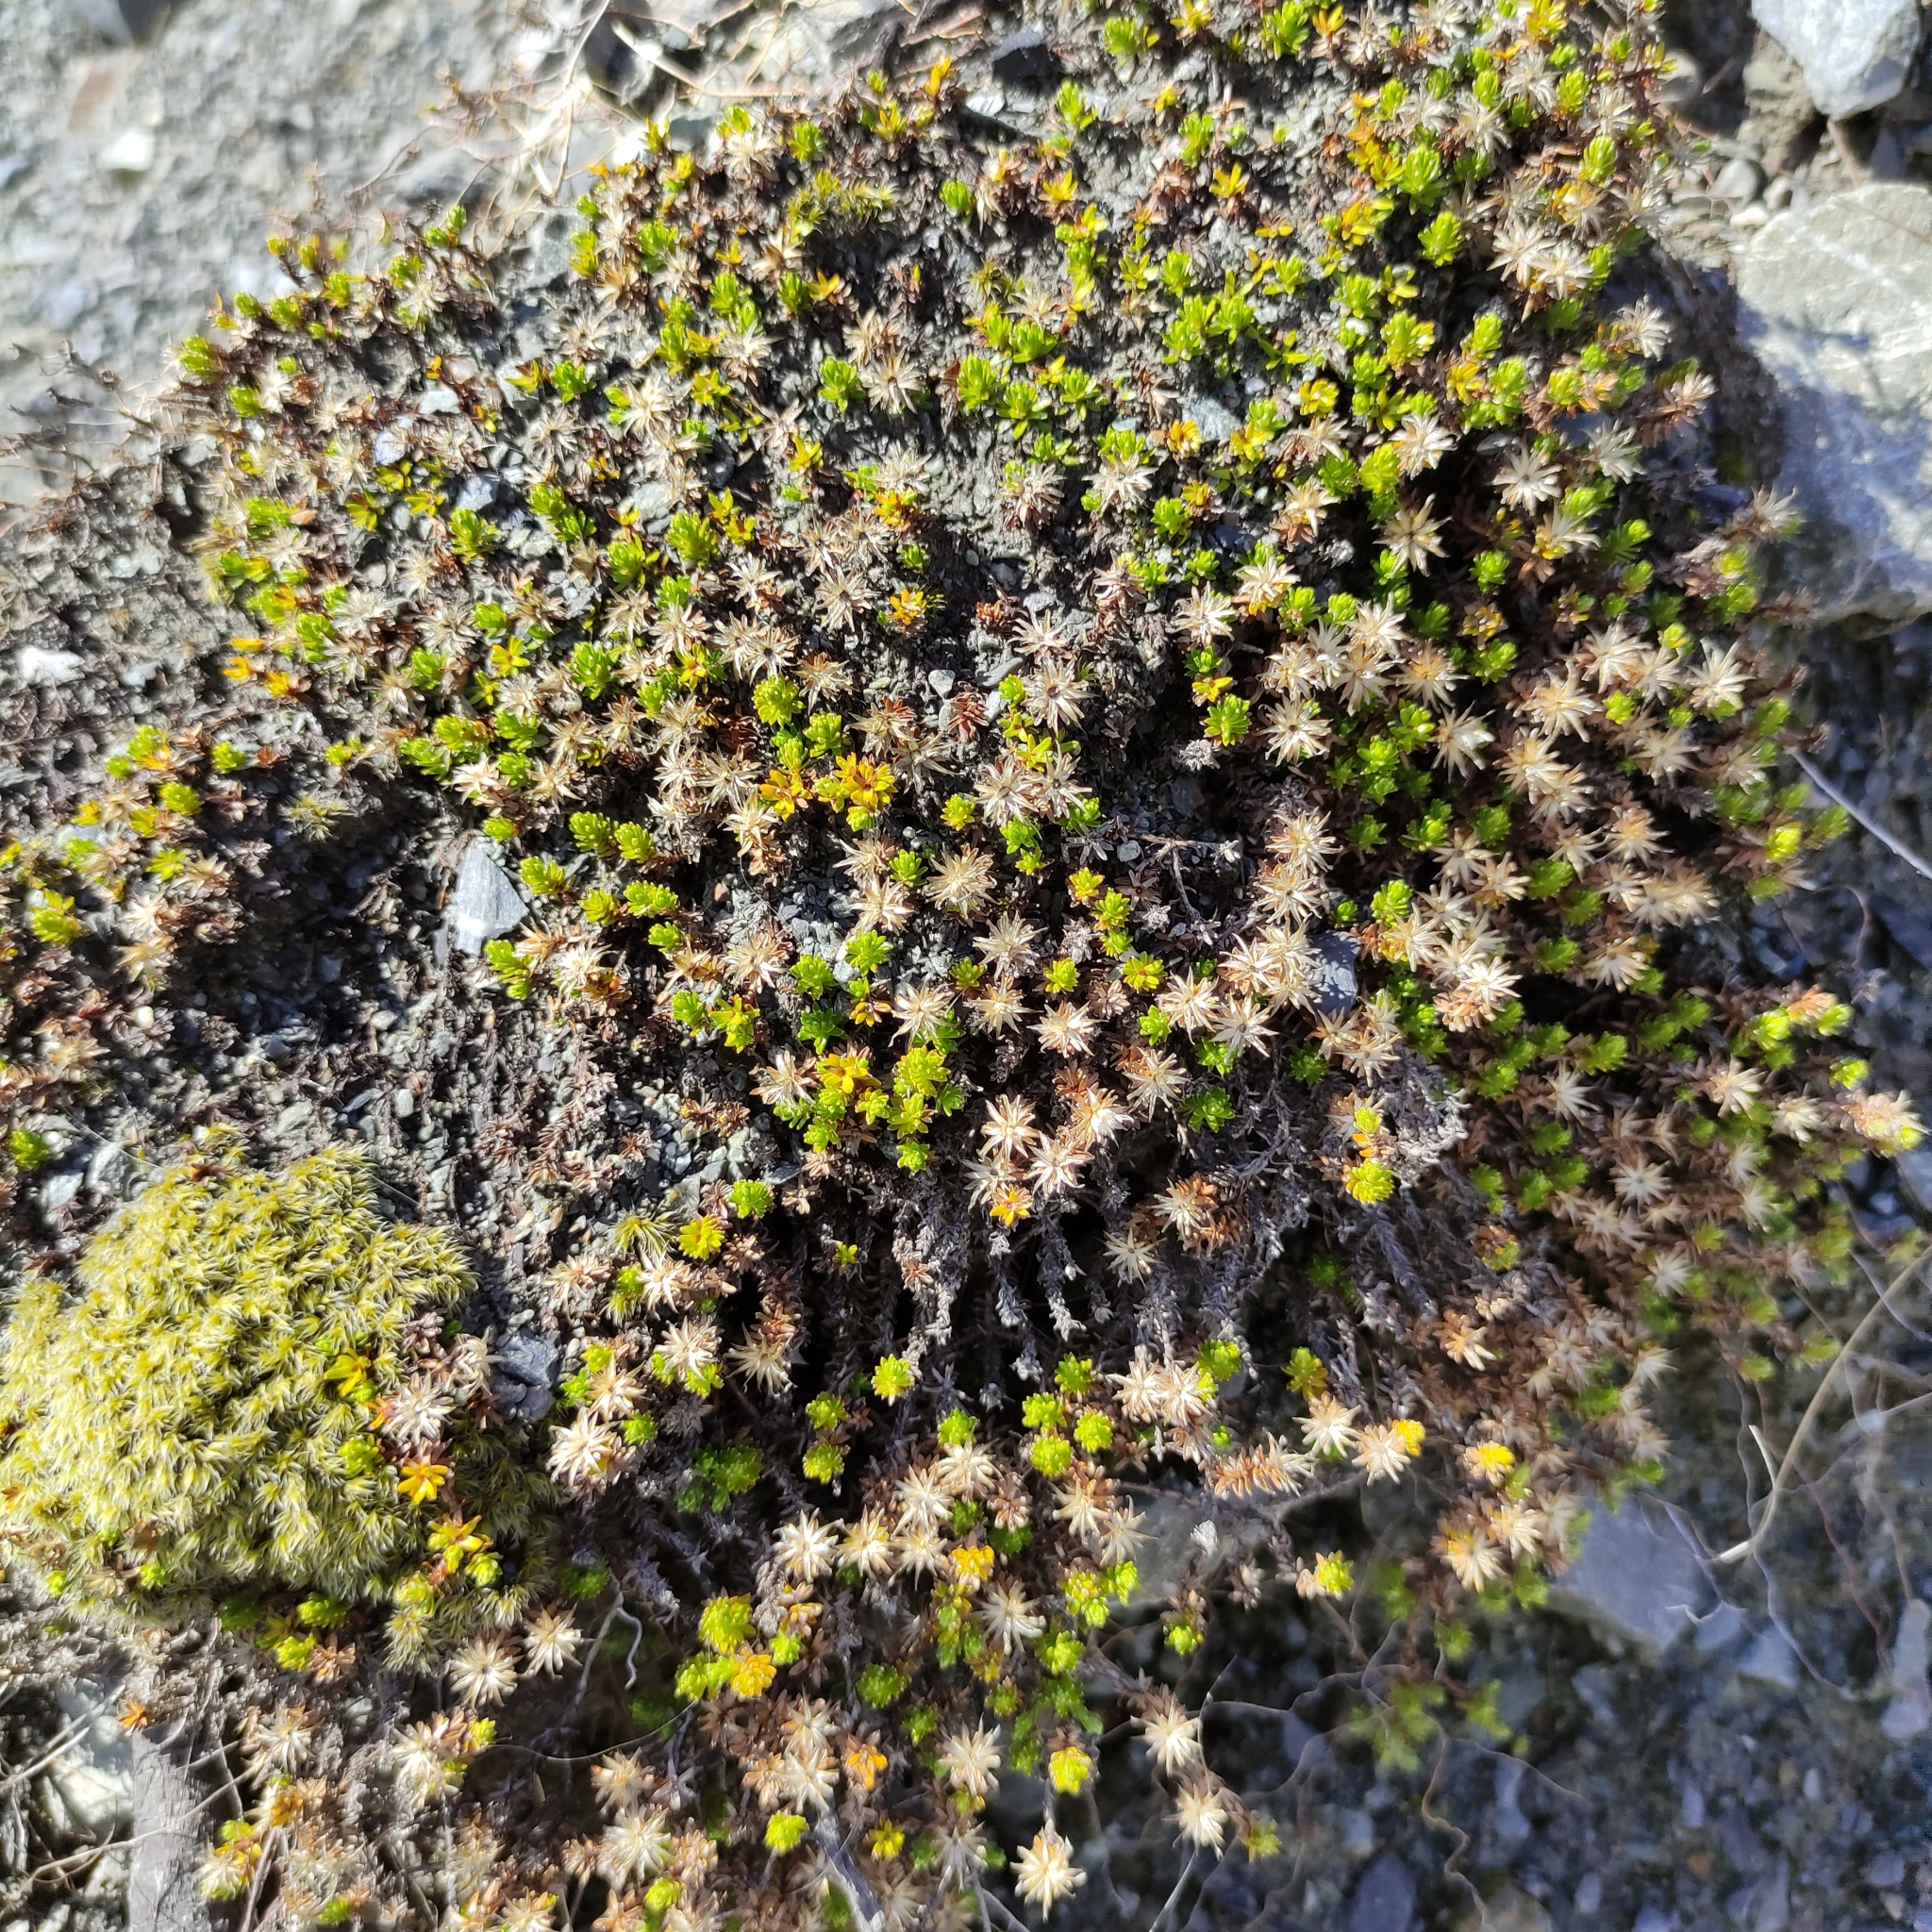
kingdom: Plantae
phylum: Tracheophyta
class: Magnoliopsida
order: Asterales
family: Asteraceae
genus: Raoulia
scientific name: Raoulia glabra
